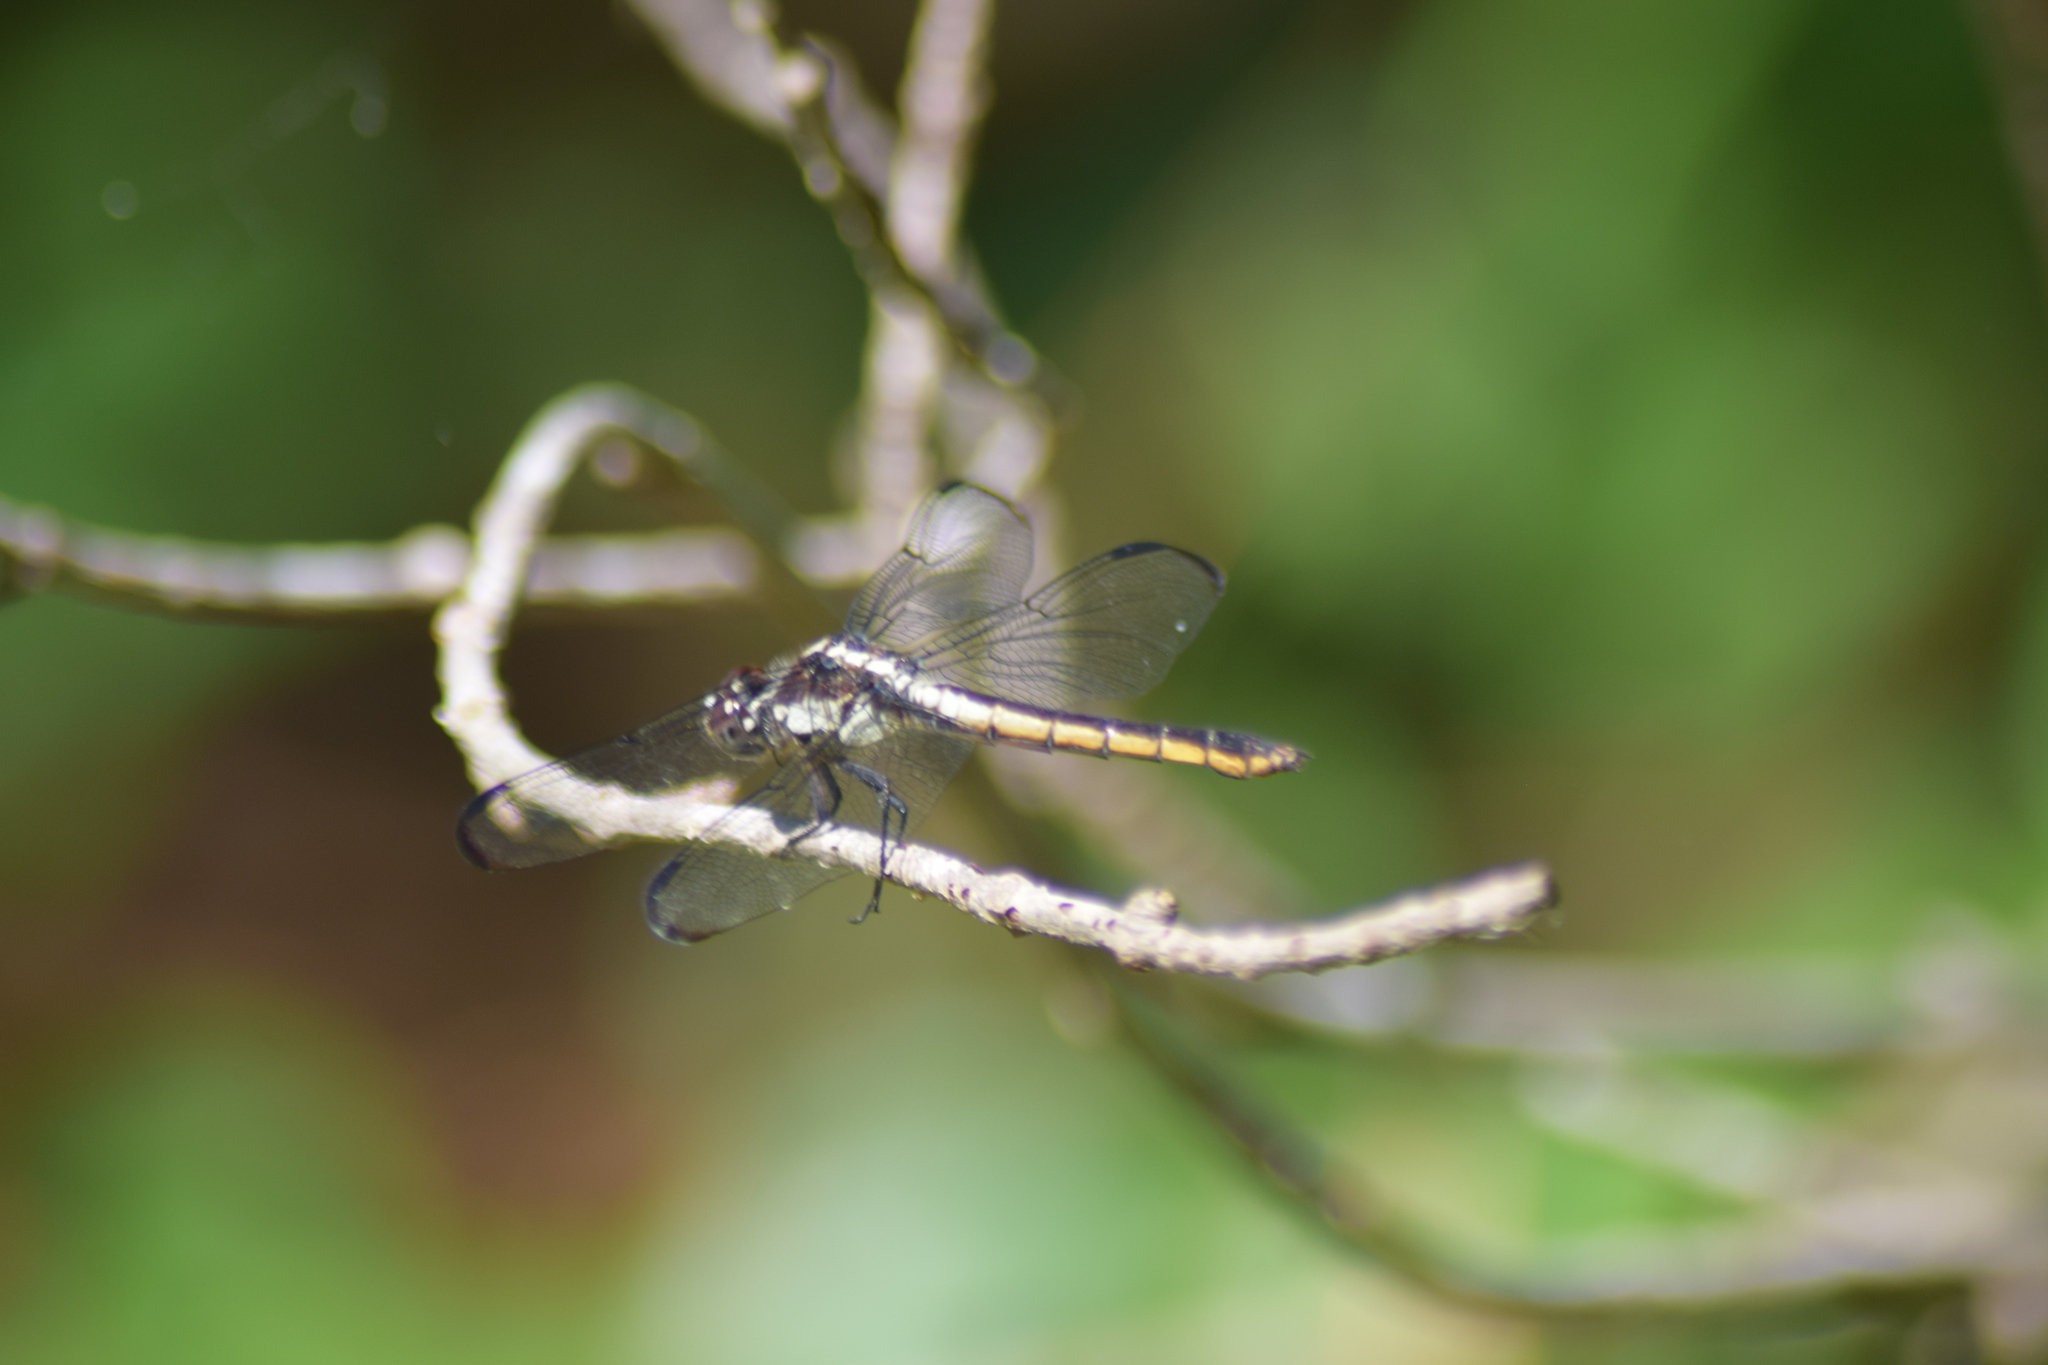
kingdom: Animalia
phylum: Arthropoda
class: Insecta
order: Odonata
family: Libellulidae
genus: Libellula
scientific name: Libellula incesta
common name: Slaty skimmer
